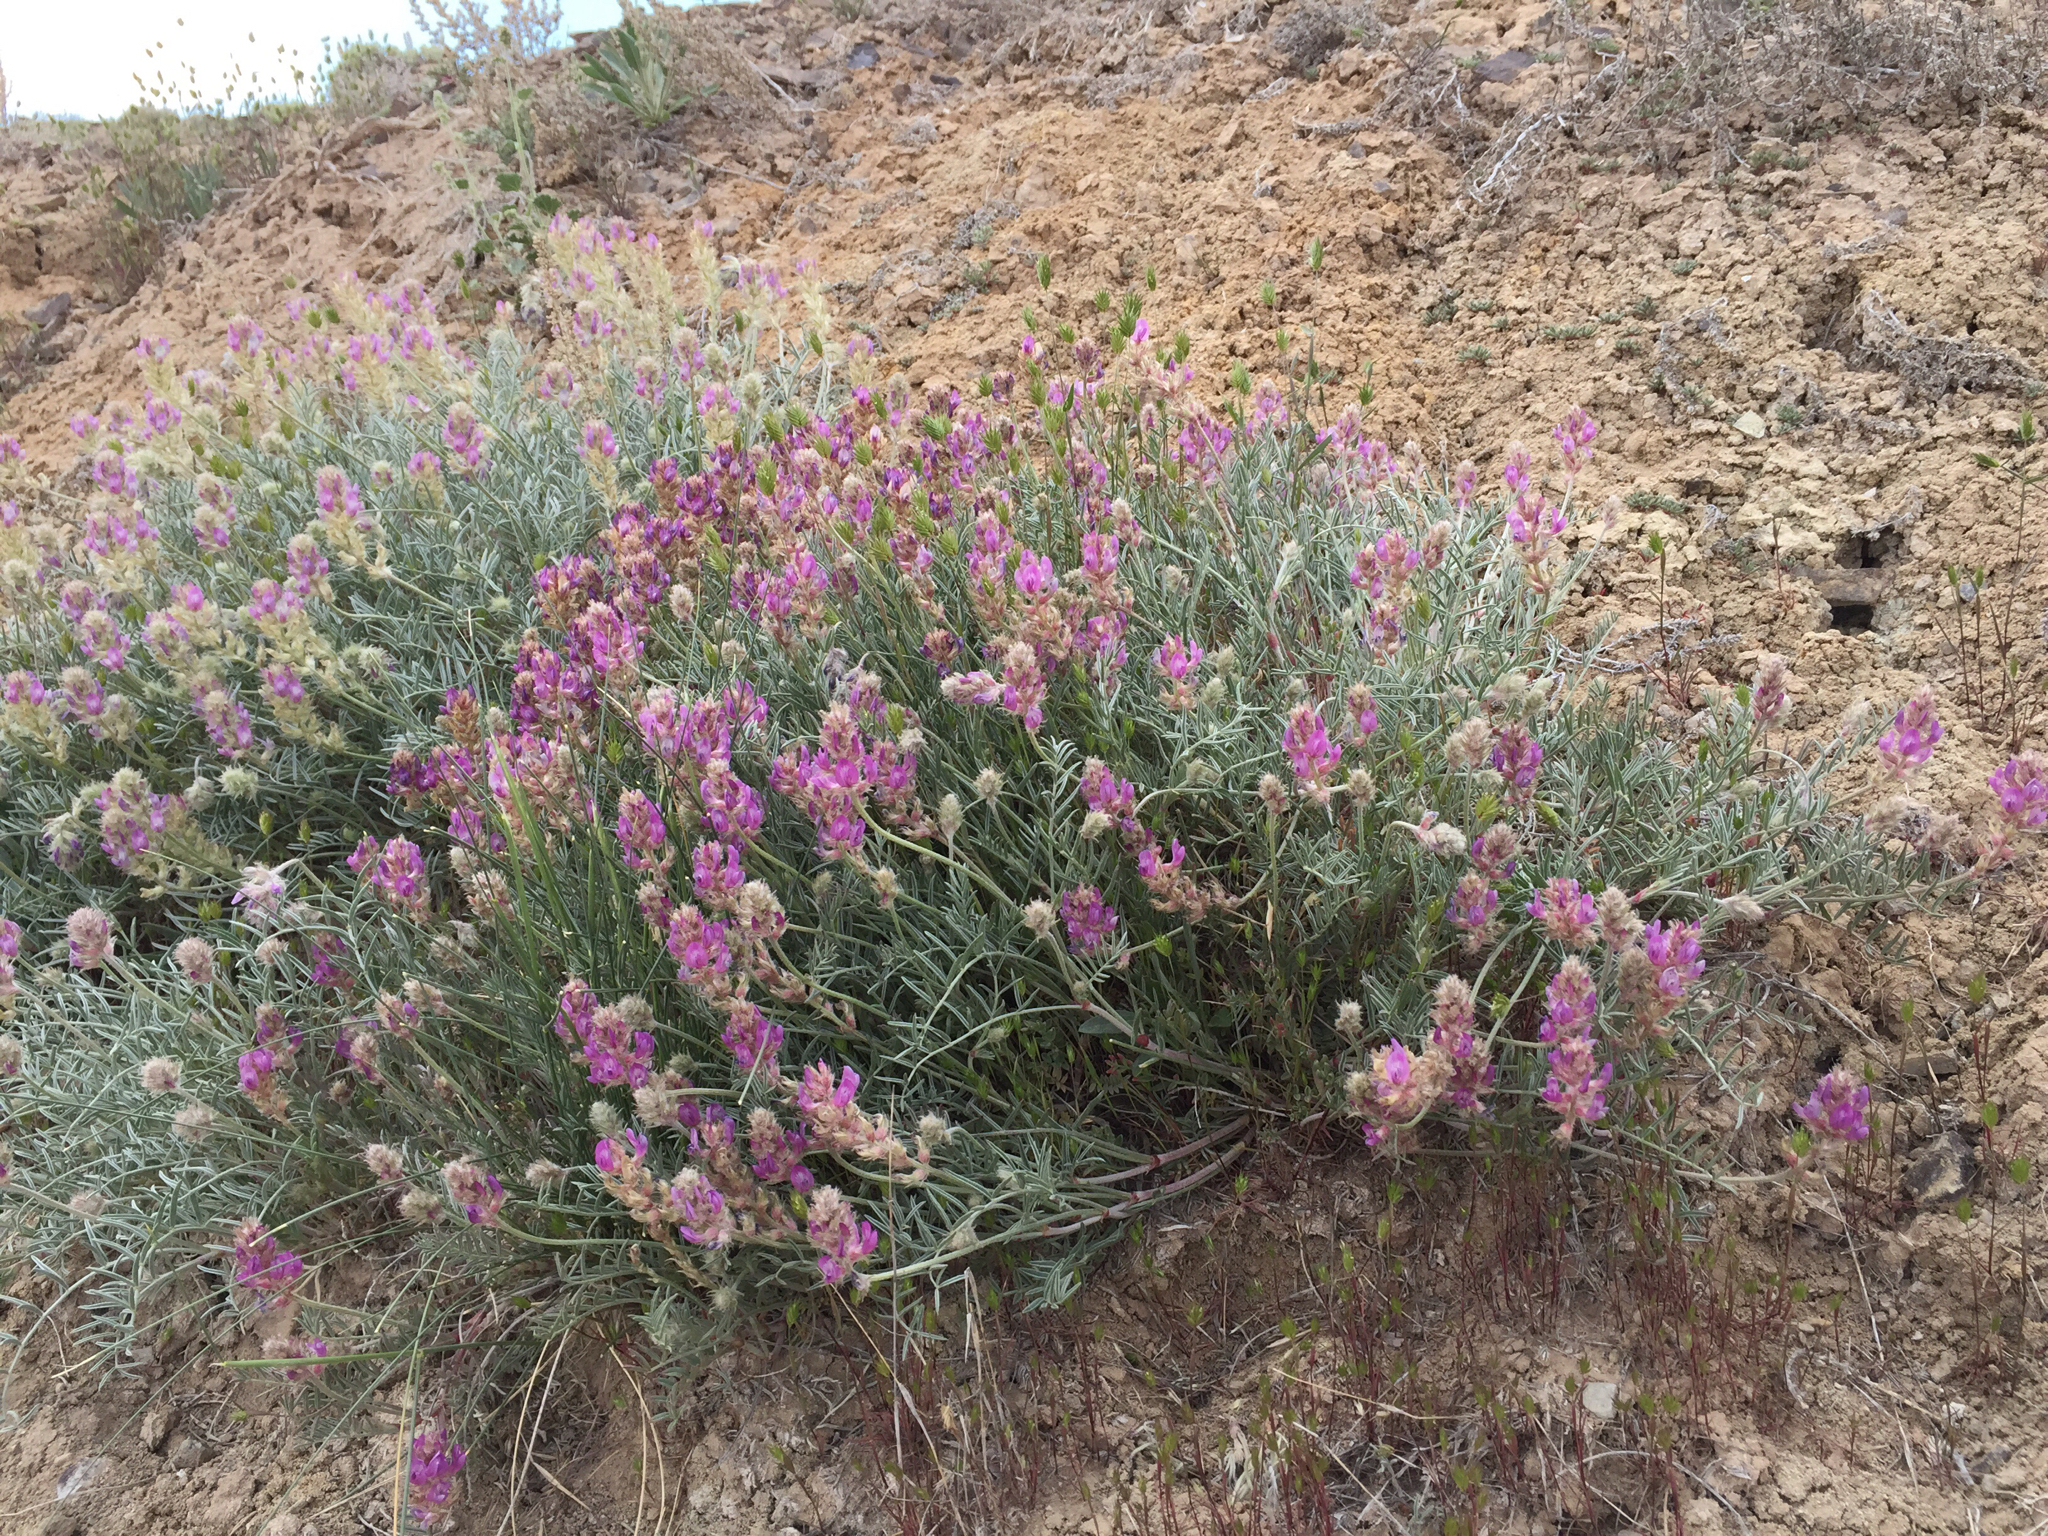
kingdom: Plantae
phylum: Tracheophyta
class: Magnoliopsida
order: Fabales
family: Fabaceae
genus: Astragalus
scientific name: Astragalus flavus
